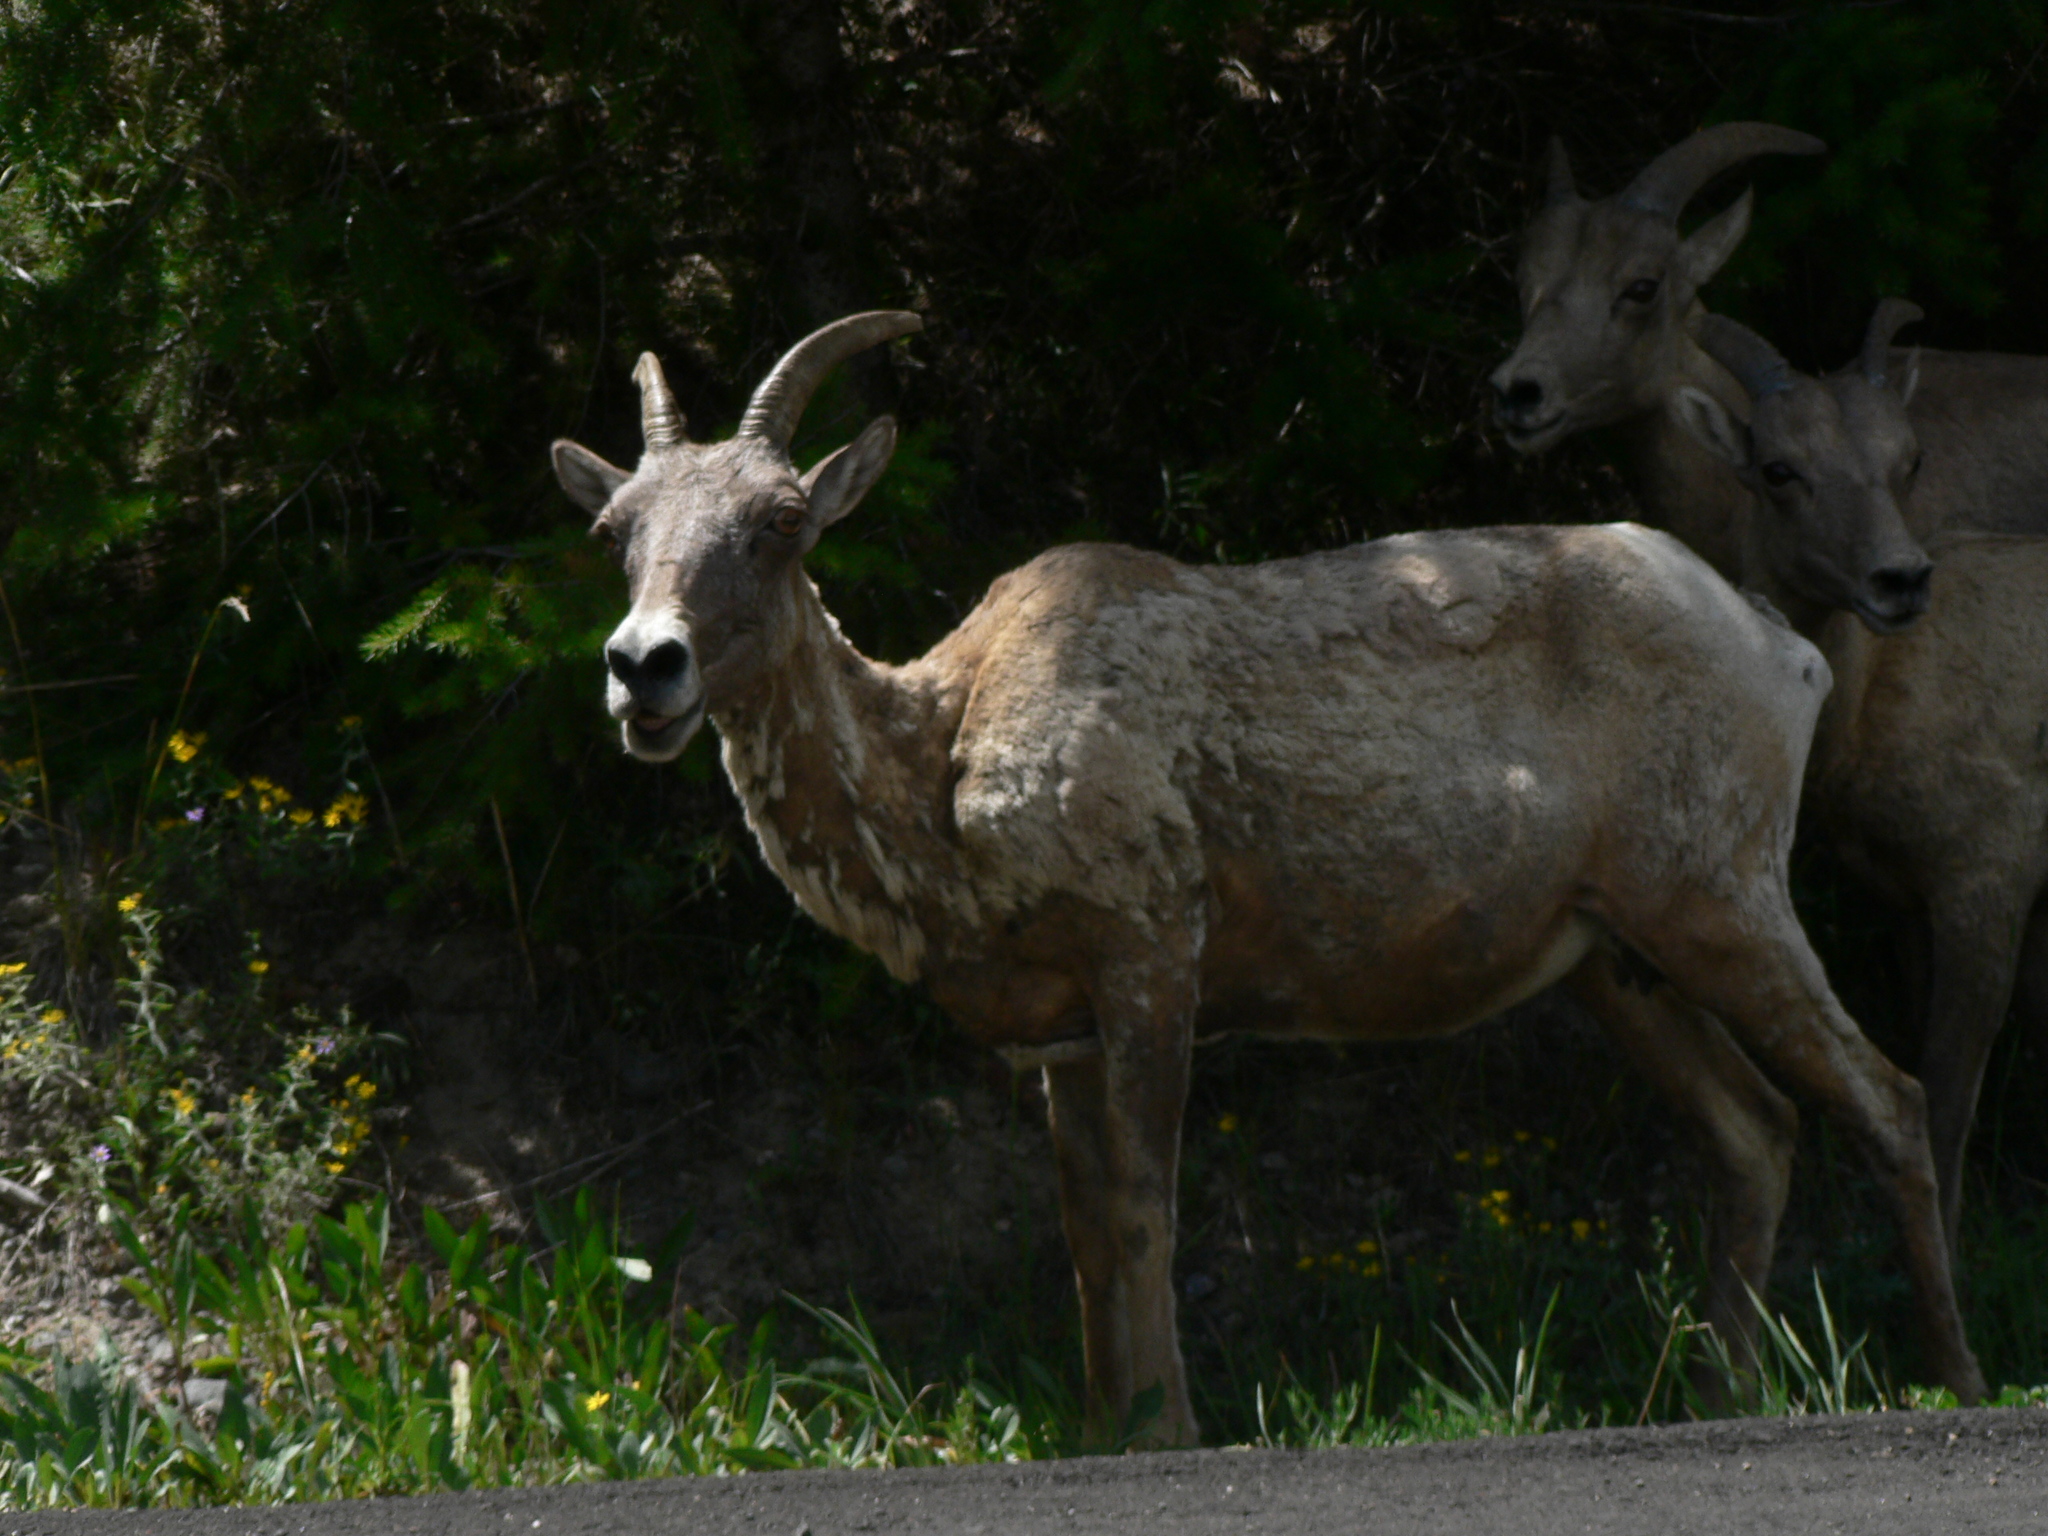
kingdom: Animalia
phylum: Chordata
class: Mammalia
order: Artiodactyla
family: Bovidae
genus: Ovis
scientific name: Ovis canadensis
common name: Bighorn sheep
